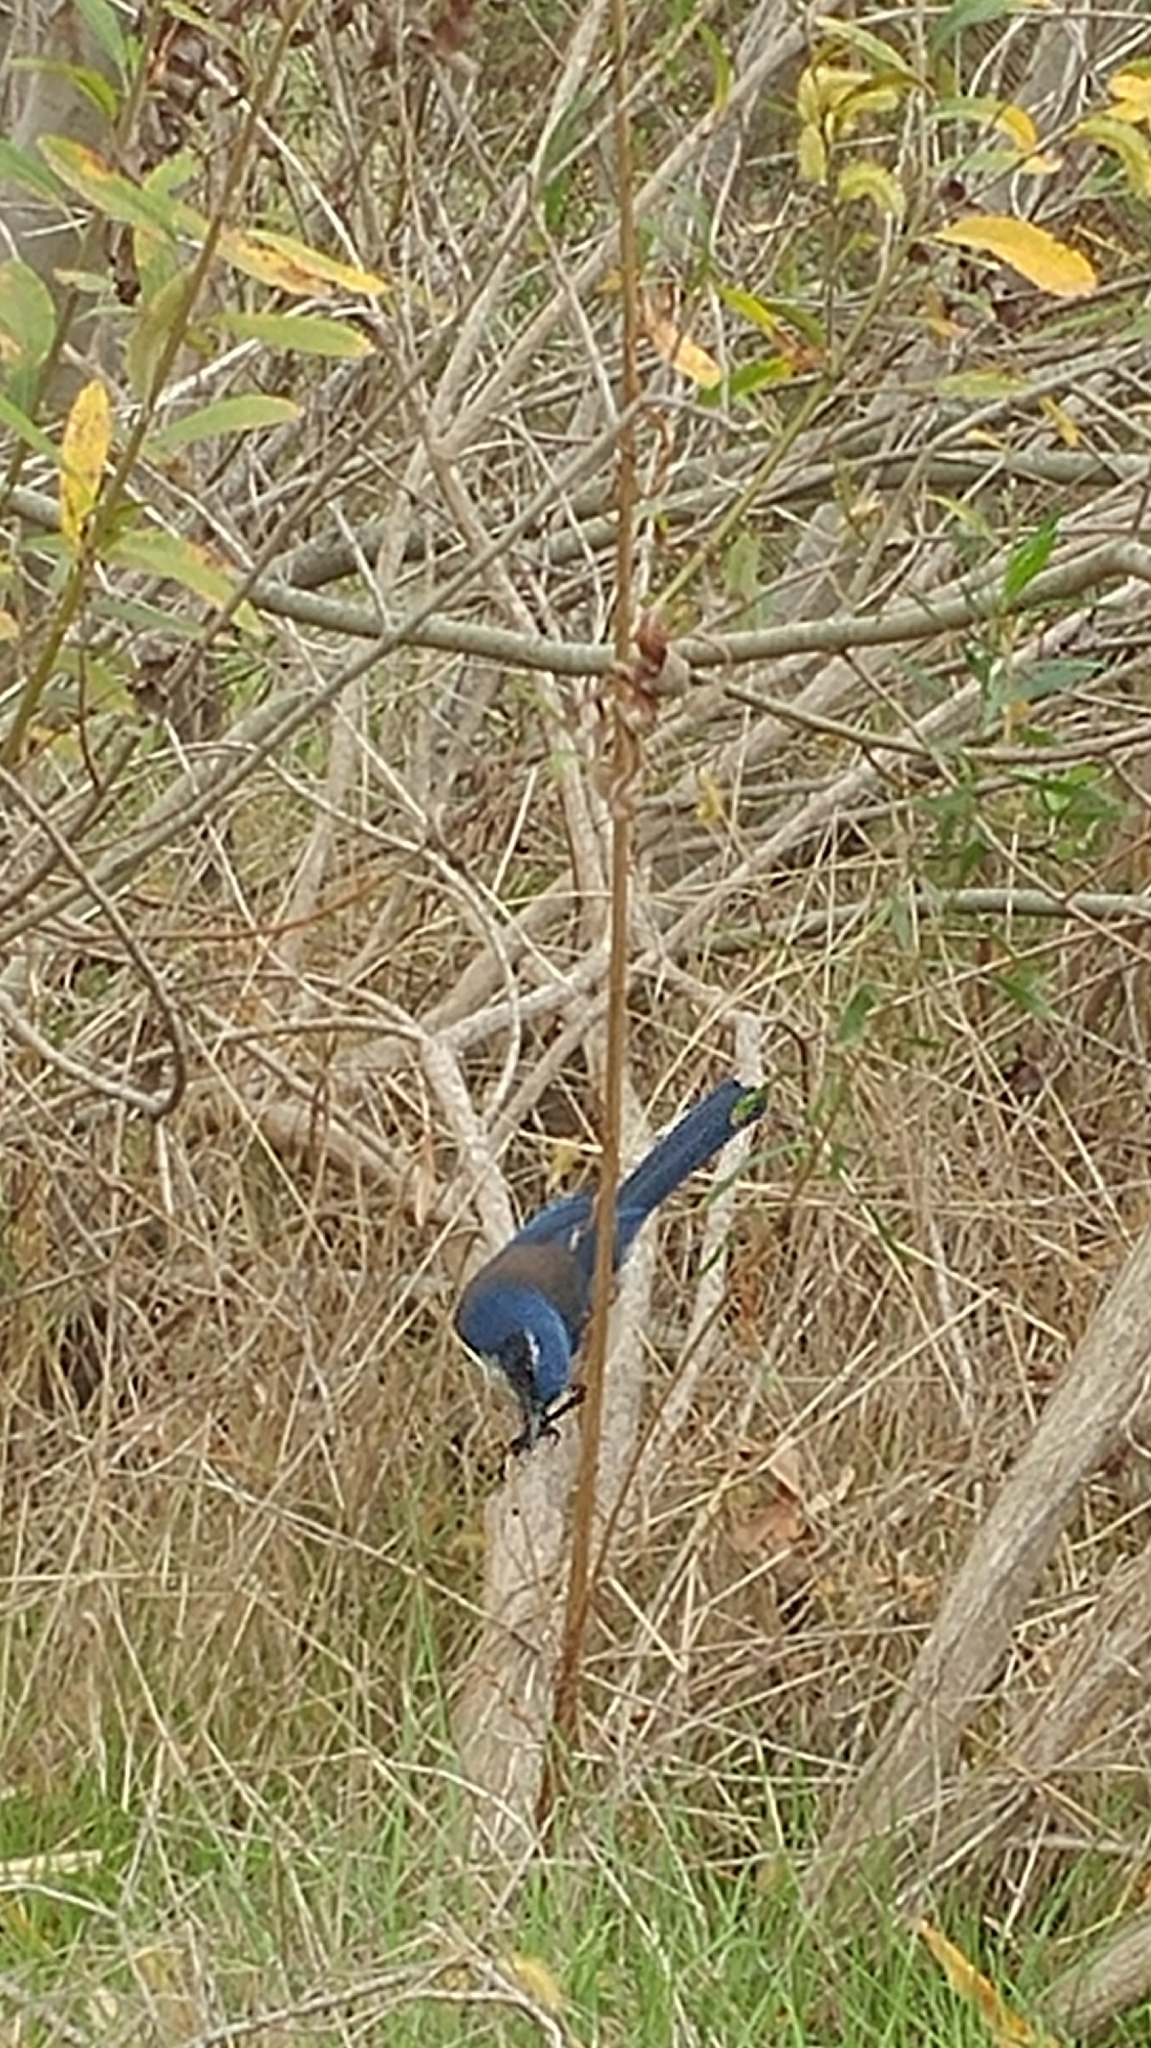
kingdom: Animalia
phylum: Chordata
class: Aves
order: Passeriformes
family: Corvidae
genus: Aphelocoma
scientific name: Aphelocoma insularis
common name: Island scrub-jay
